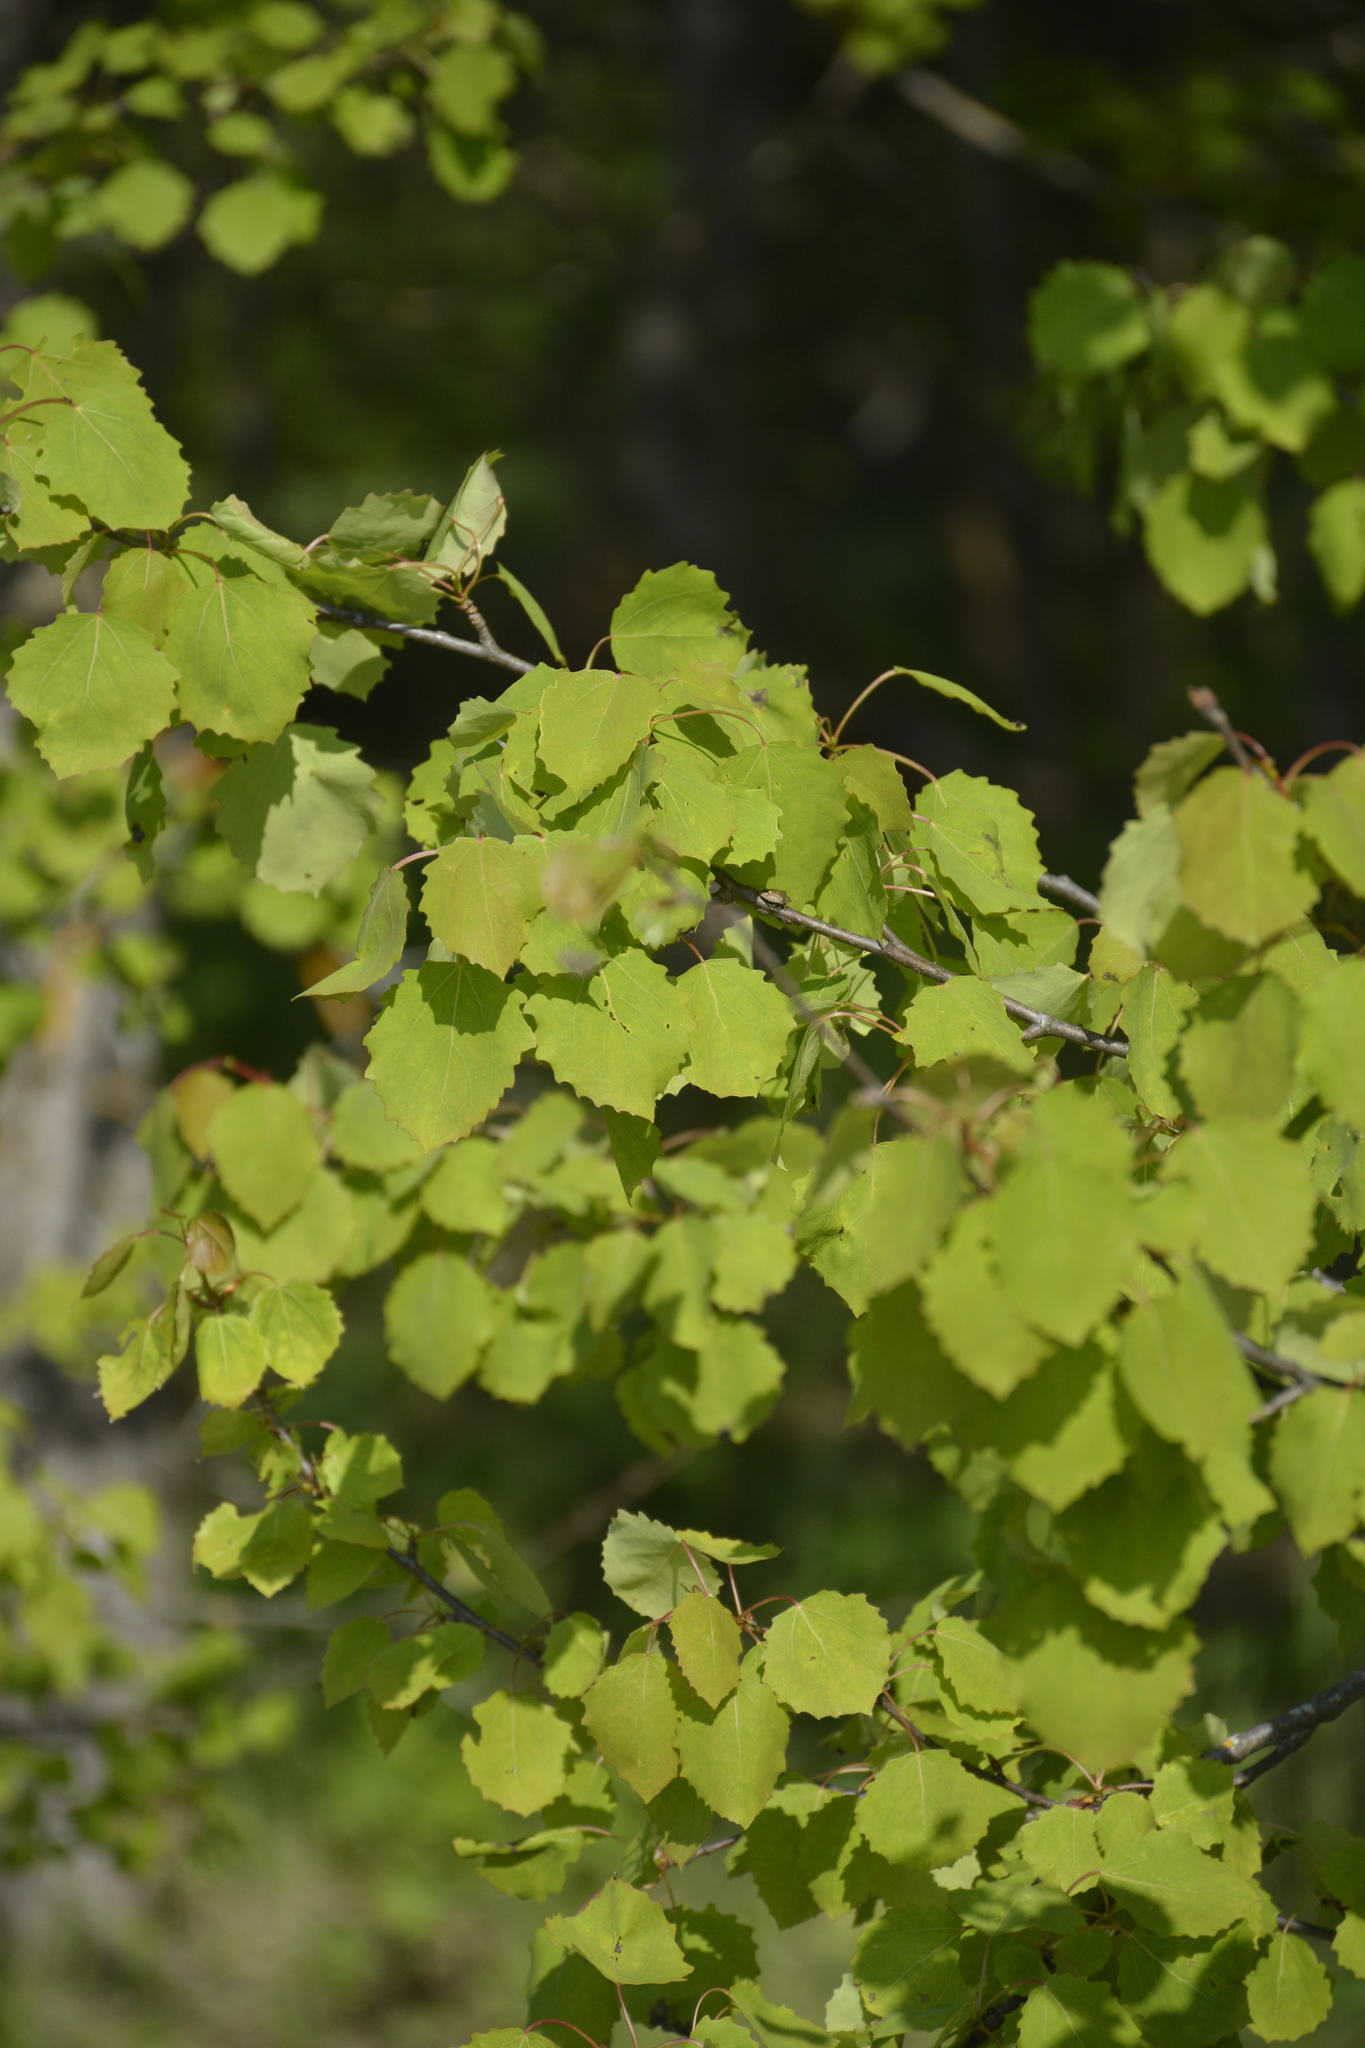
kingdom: Plantae
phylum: Tracheophyta
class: Magnoliopsida
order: Malpighiales
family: Salicaceae
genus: Populus
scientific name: Populus tremula
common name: European aspen
